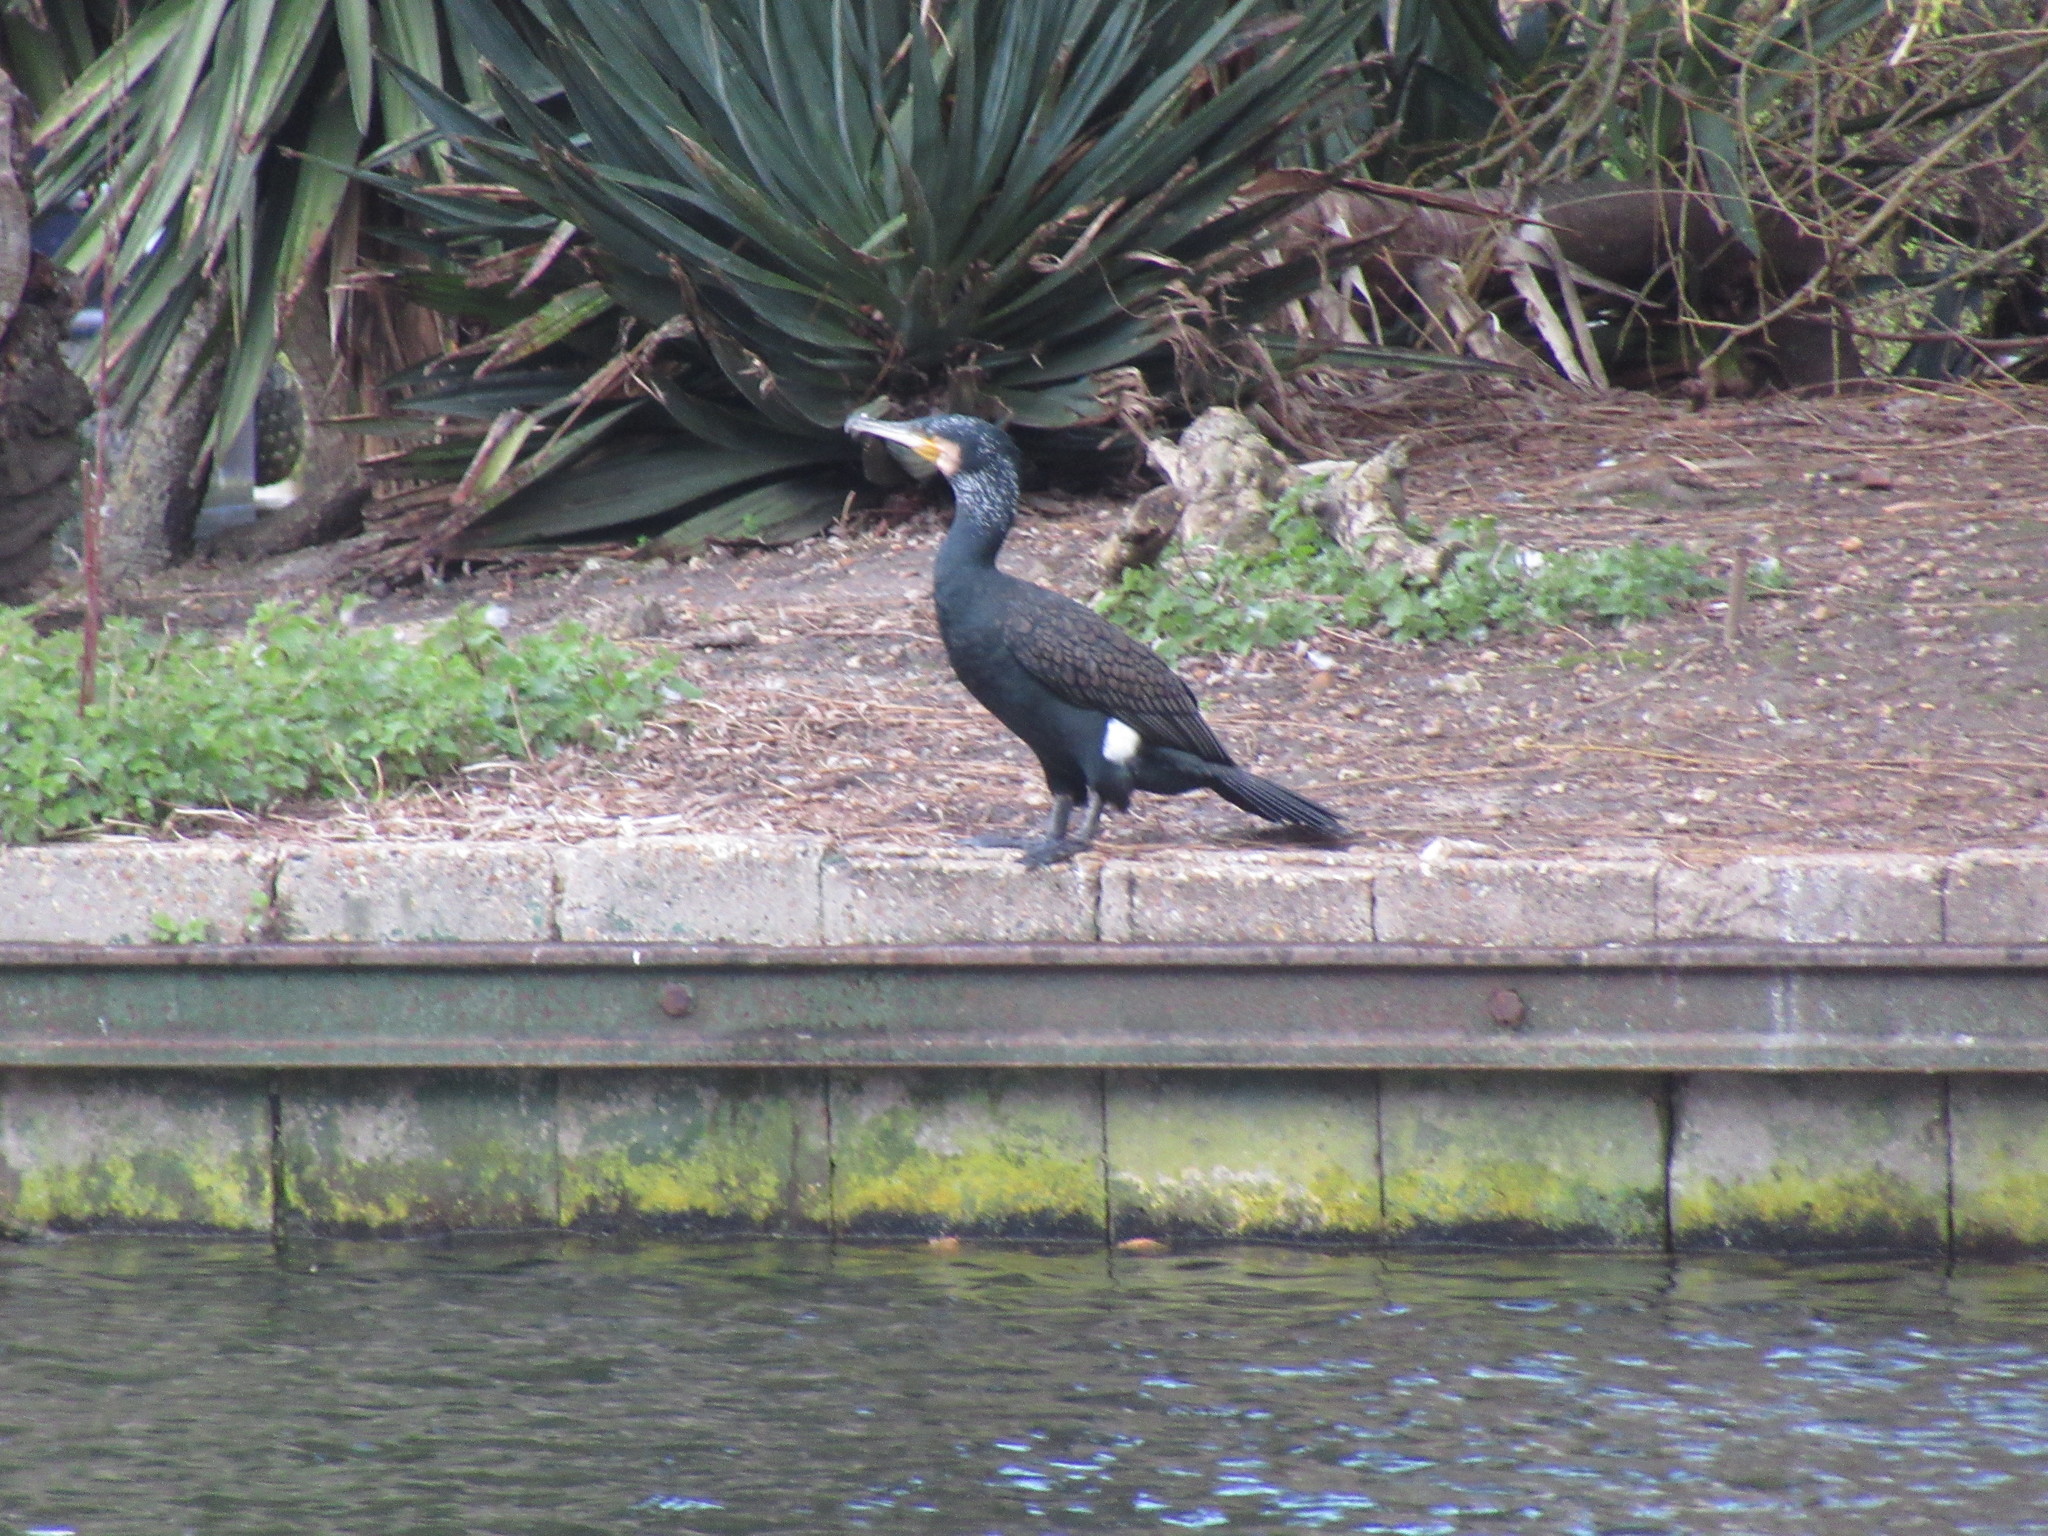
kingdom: Animalia
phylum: Chordata
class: Aves
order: Suliformes
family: Phalacrocoracidae
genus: Phalacrocorax
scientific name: Phalacrocorax carbo
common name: Great cormorant
